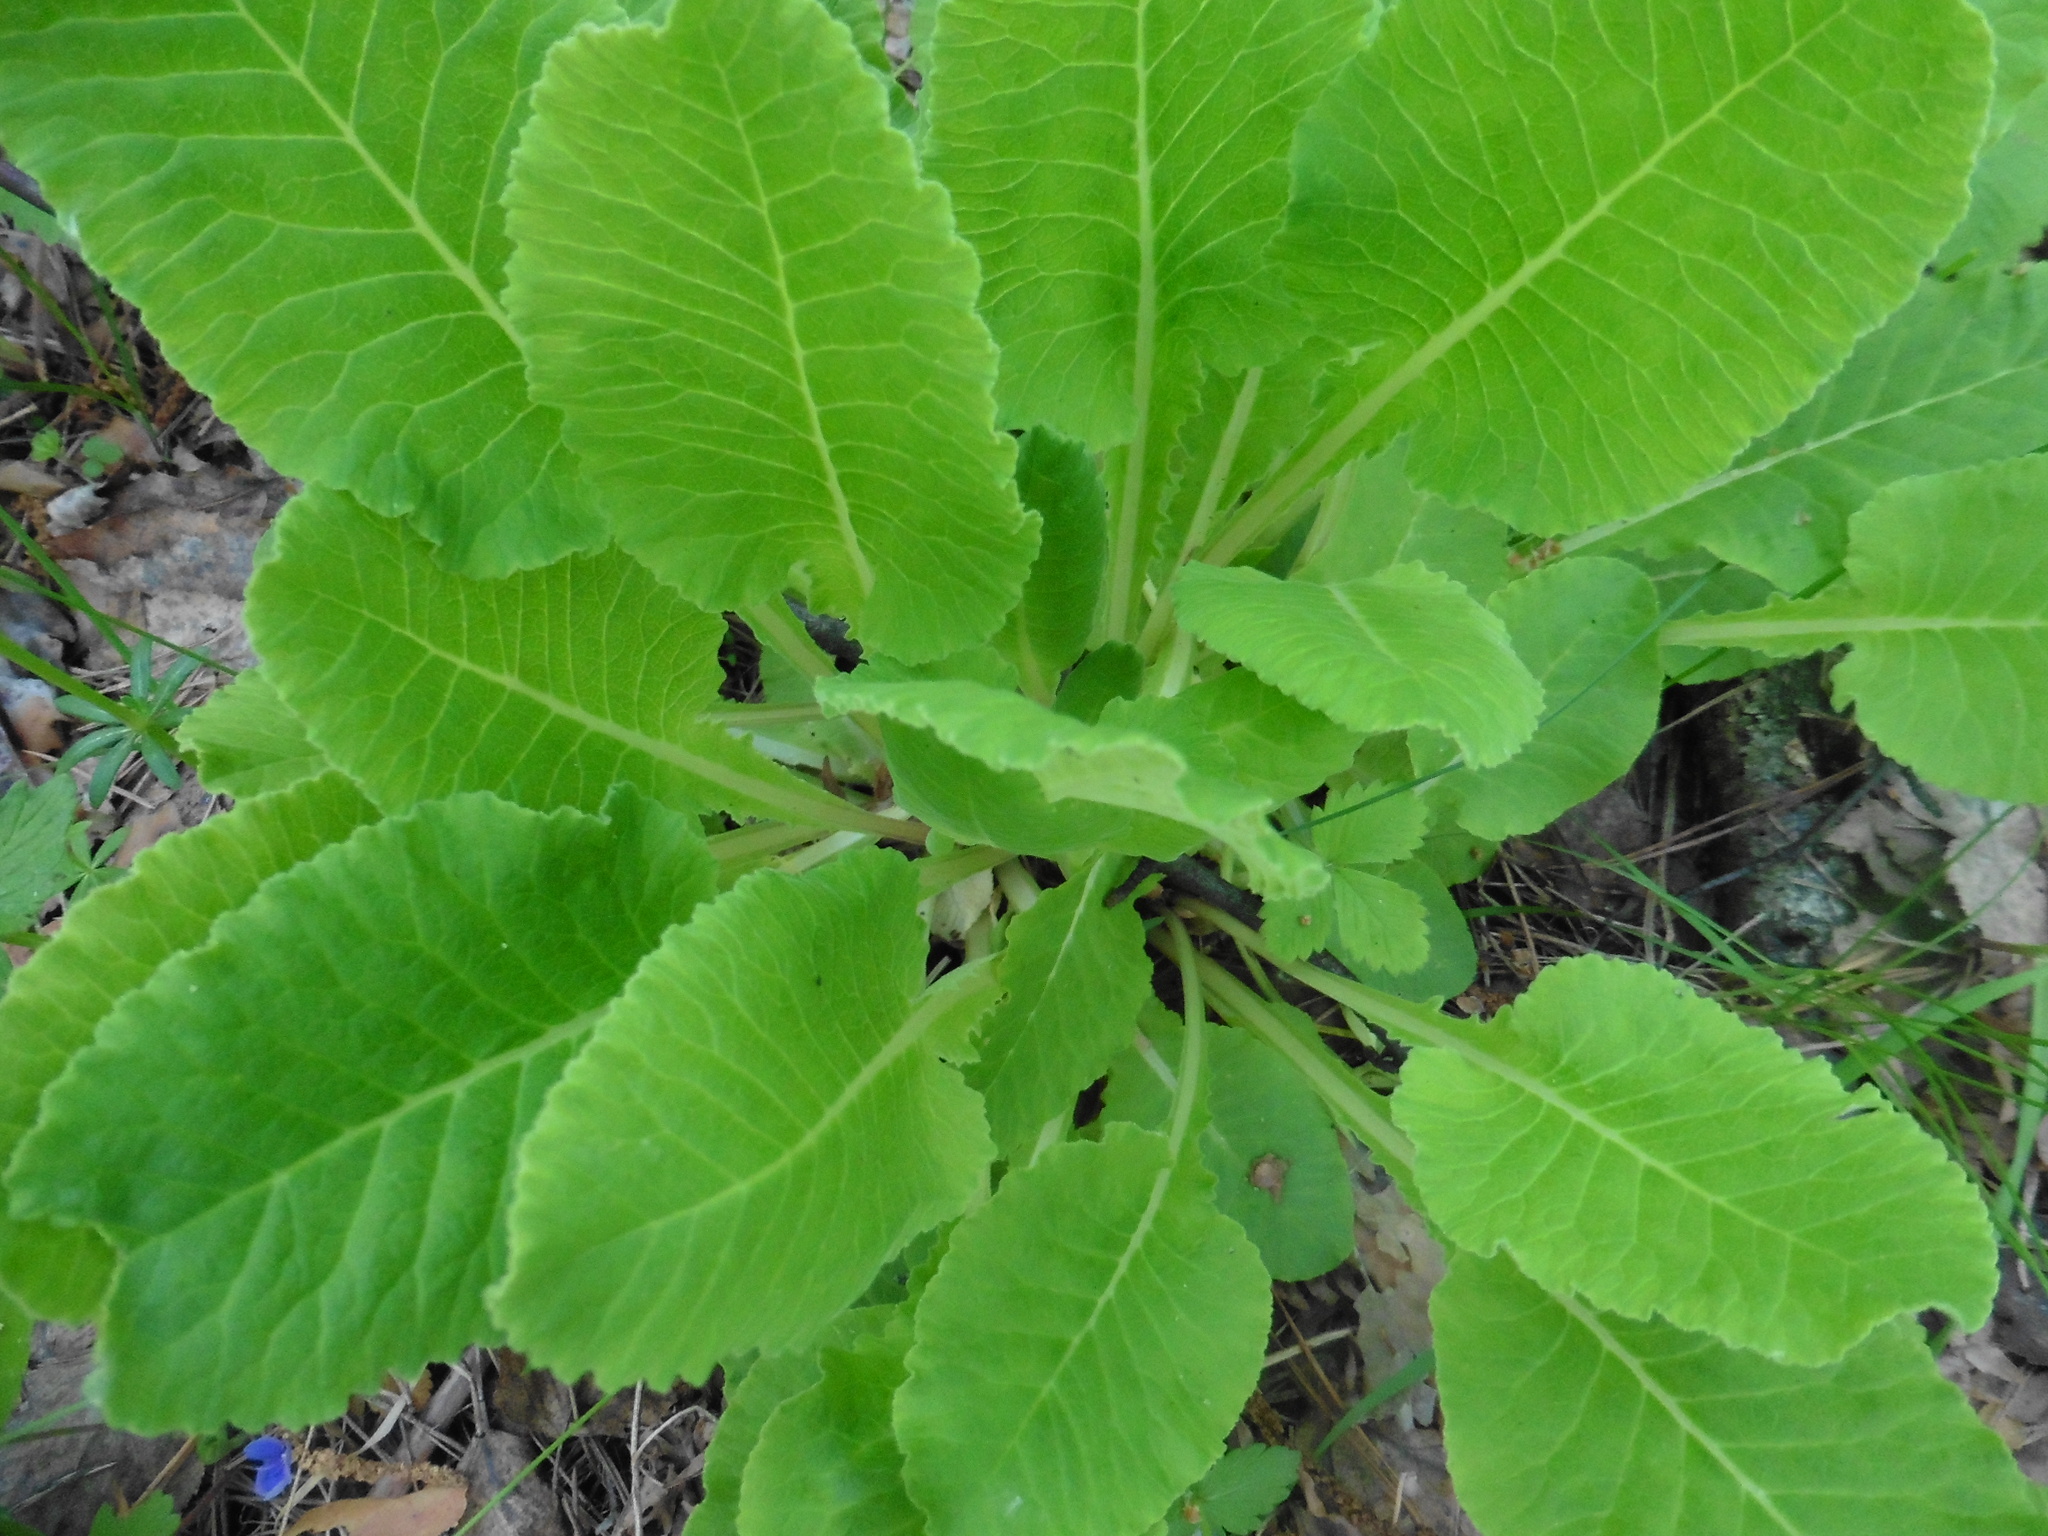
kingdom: Plantae
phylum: Tracheophyta
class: Magnoliopsida
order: Ericales
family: Primulaceae
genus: Primula
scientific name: Primula veris
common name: Cowslip
